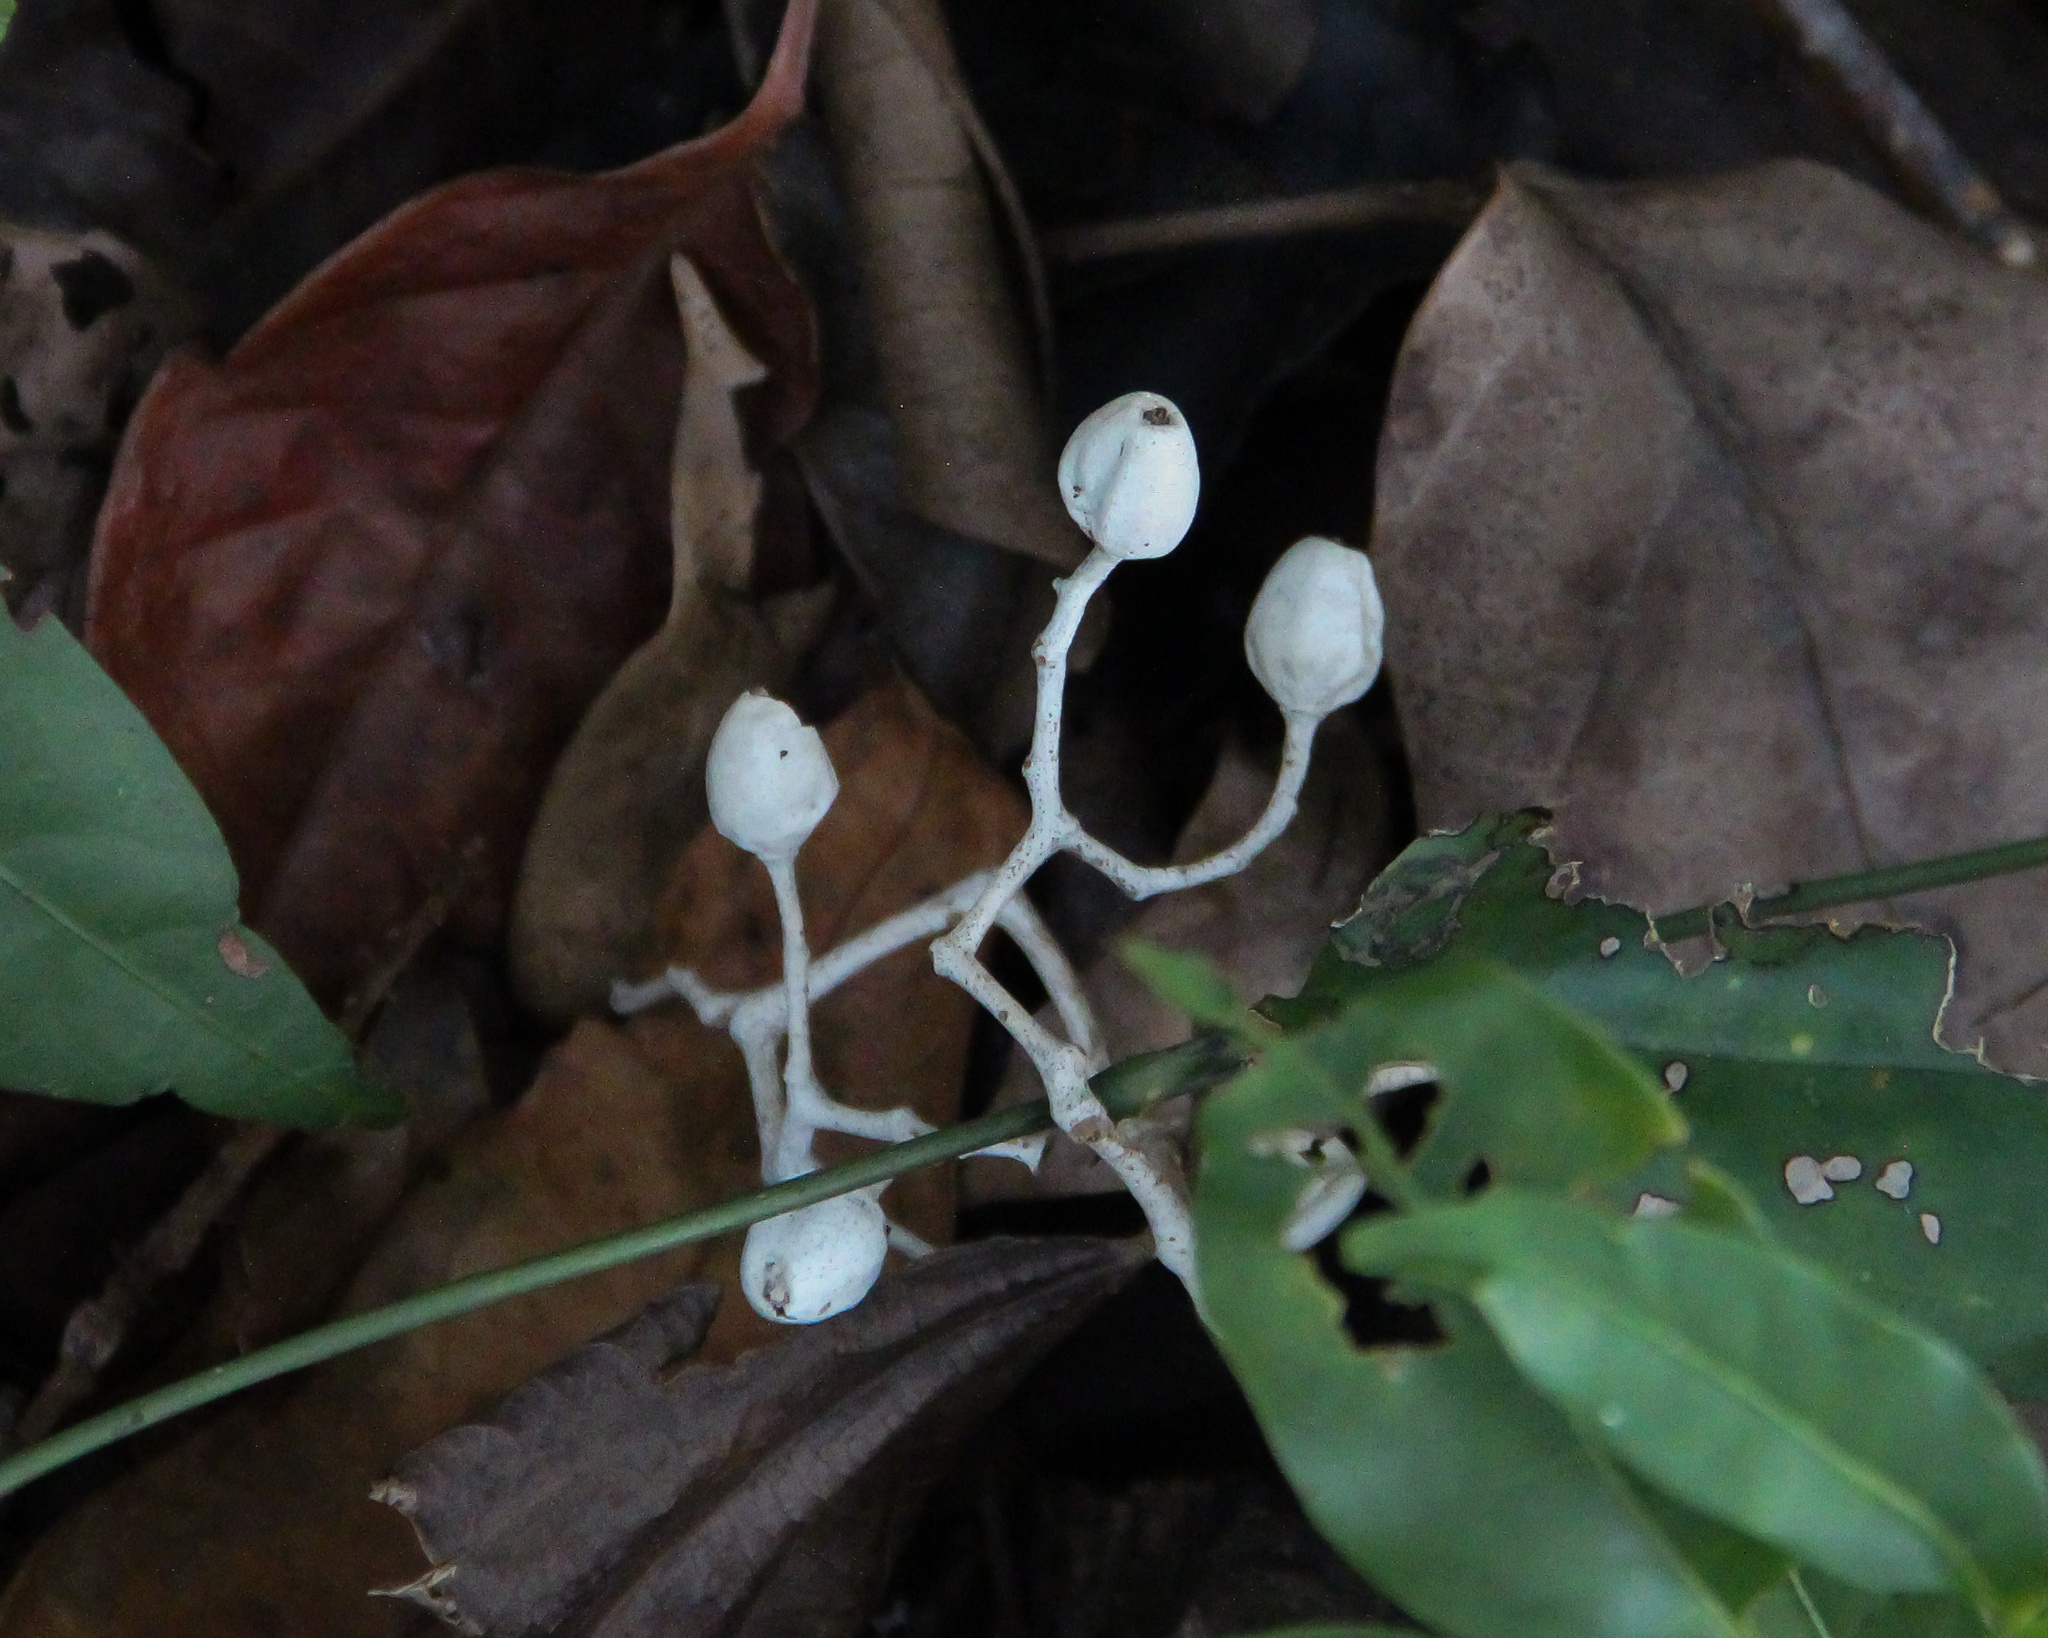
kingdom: Plantae
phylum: Tracheophyta
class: Magnoliopsida
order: Laurales
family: Hernandiaceae
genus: Sparattanthelium
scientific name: Sparattanthelium botocudorum
